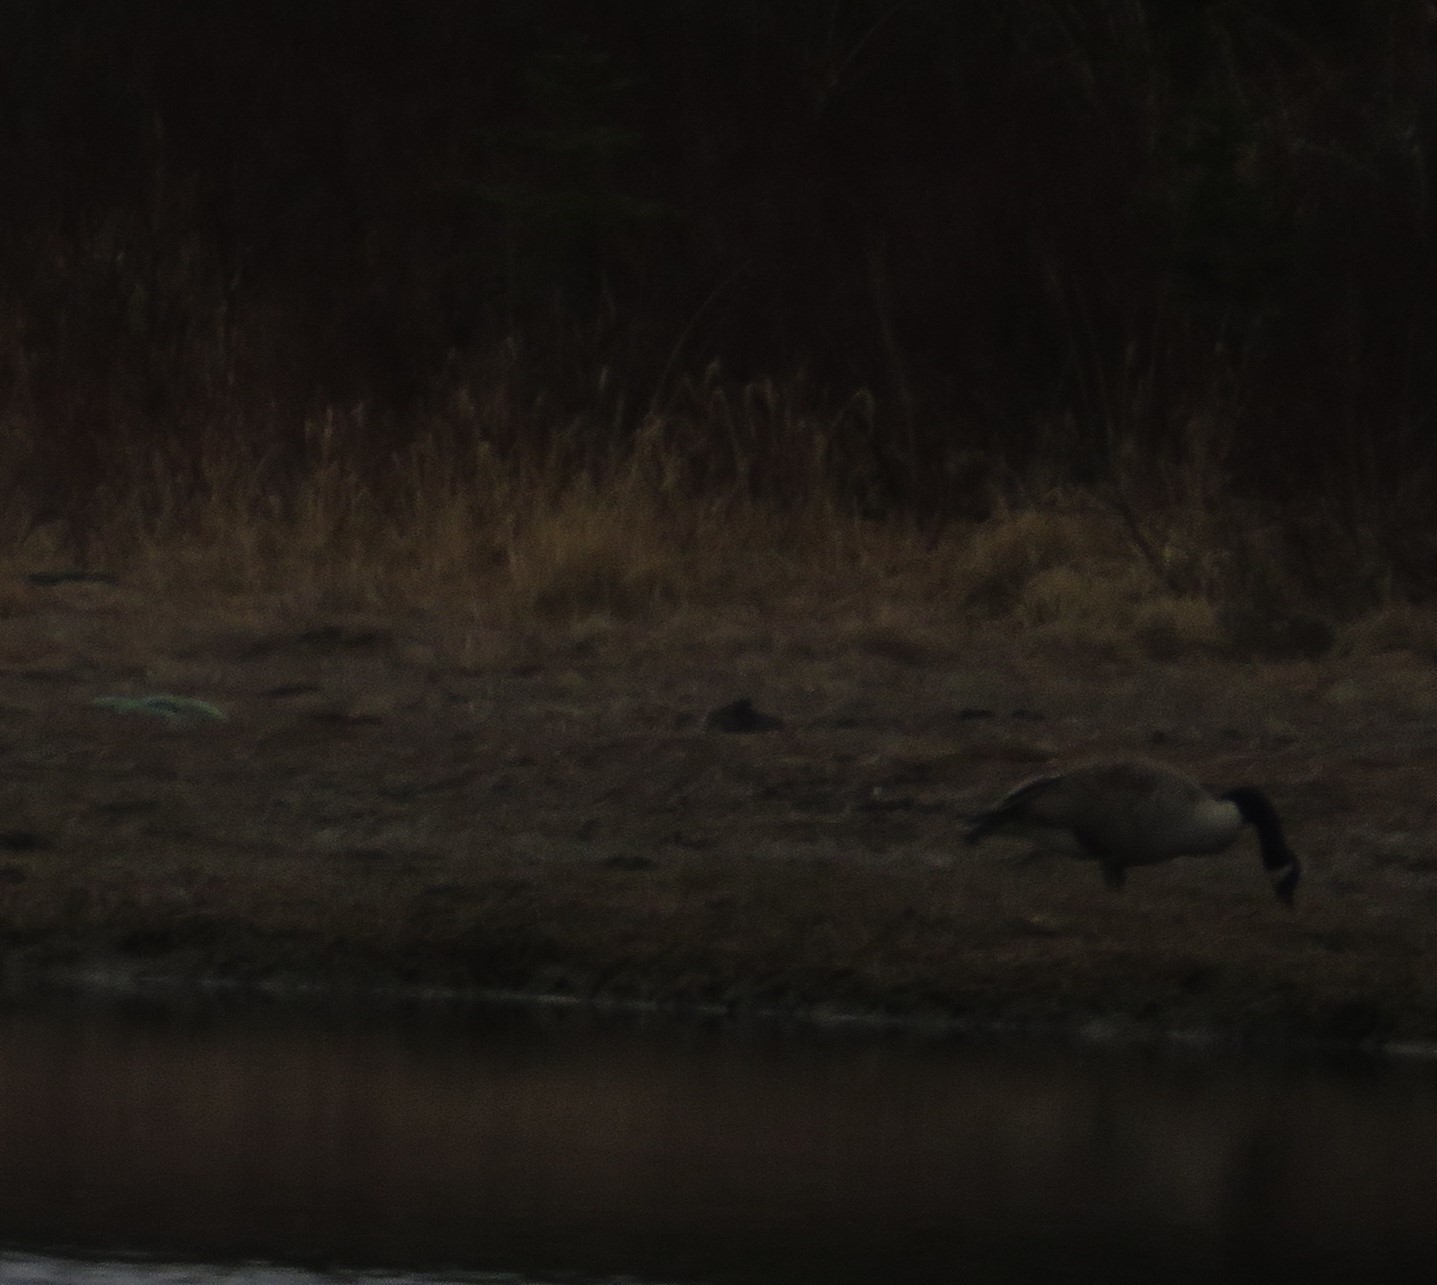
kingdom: Animalia
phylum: Chordata
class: Aves
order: Anseriformes
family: Anatidae
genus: Branta
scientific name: Branta canadensis
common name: Canada goose
